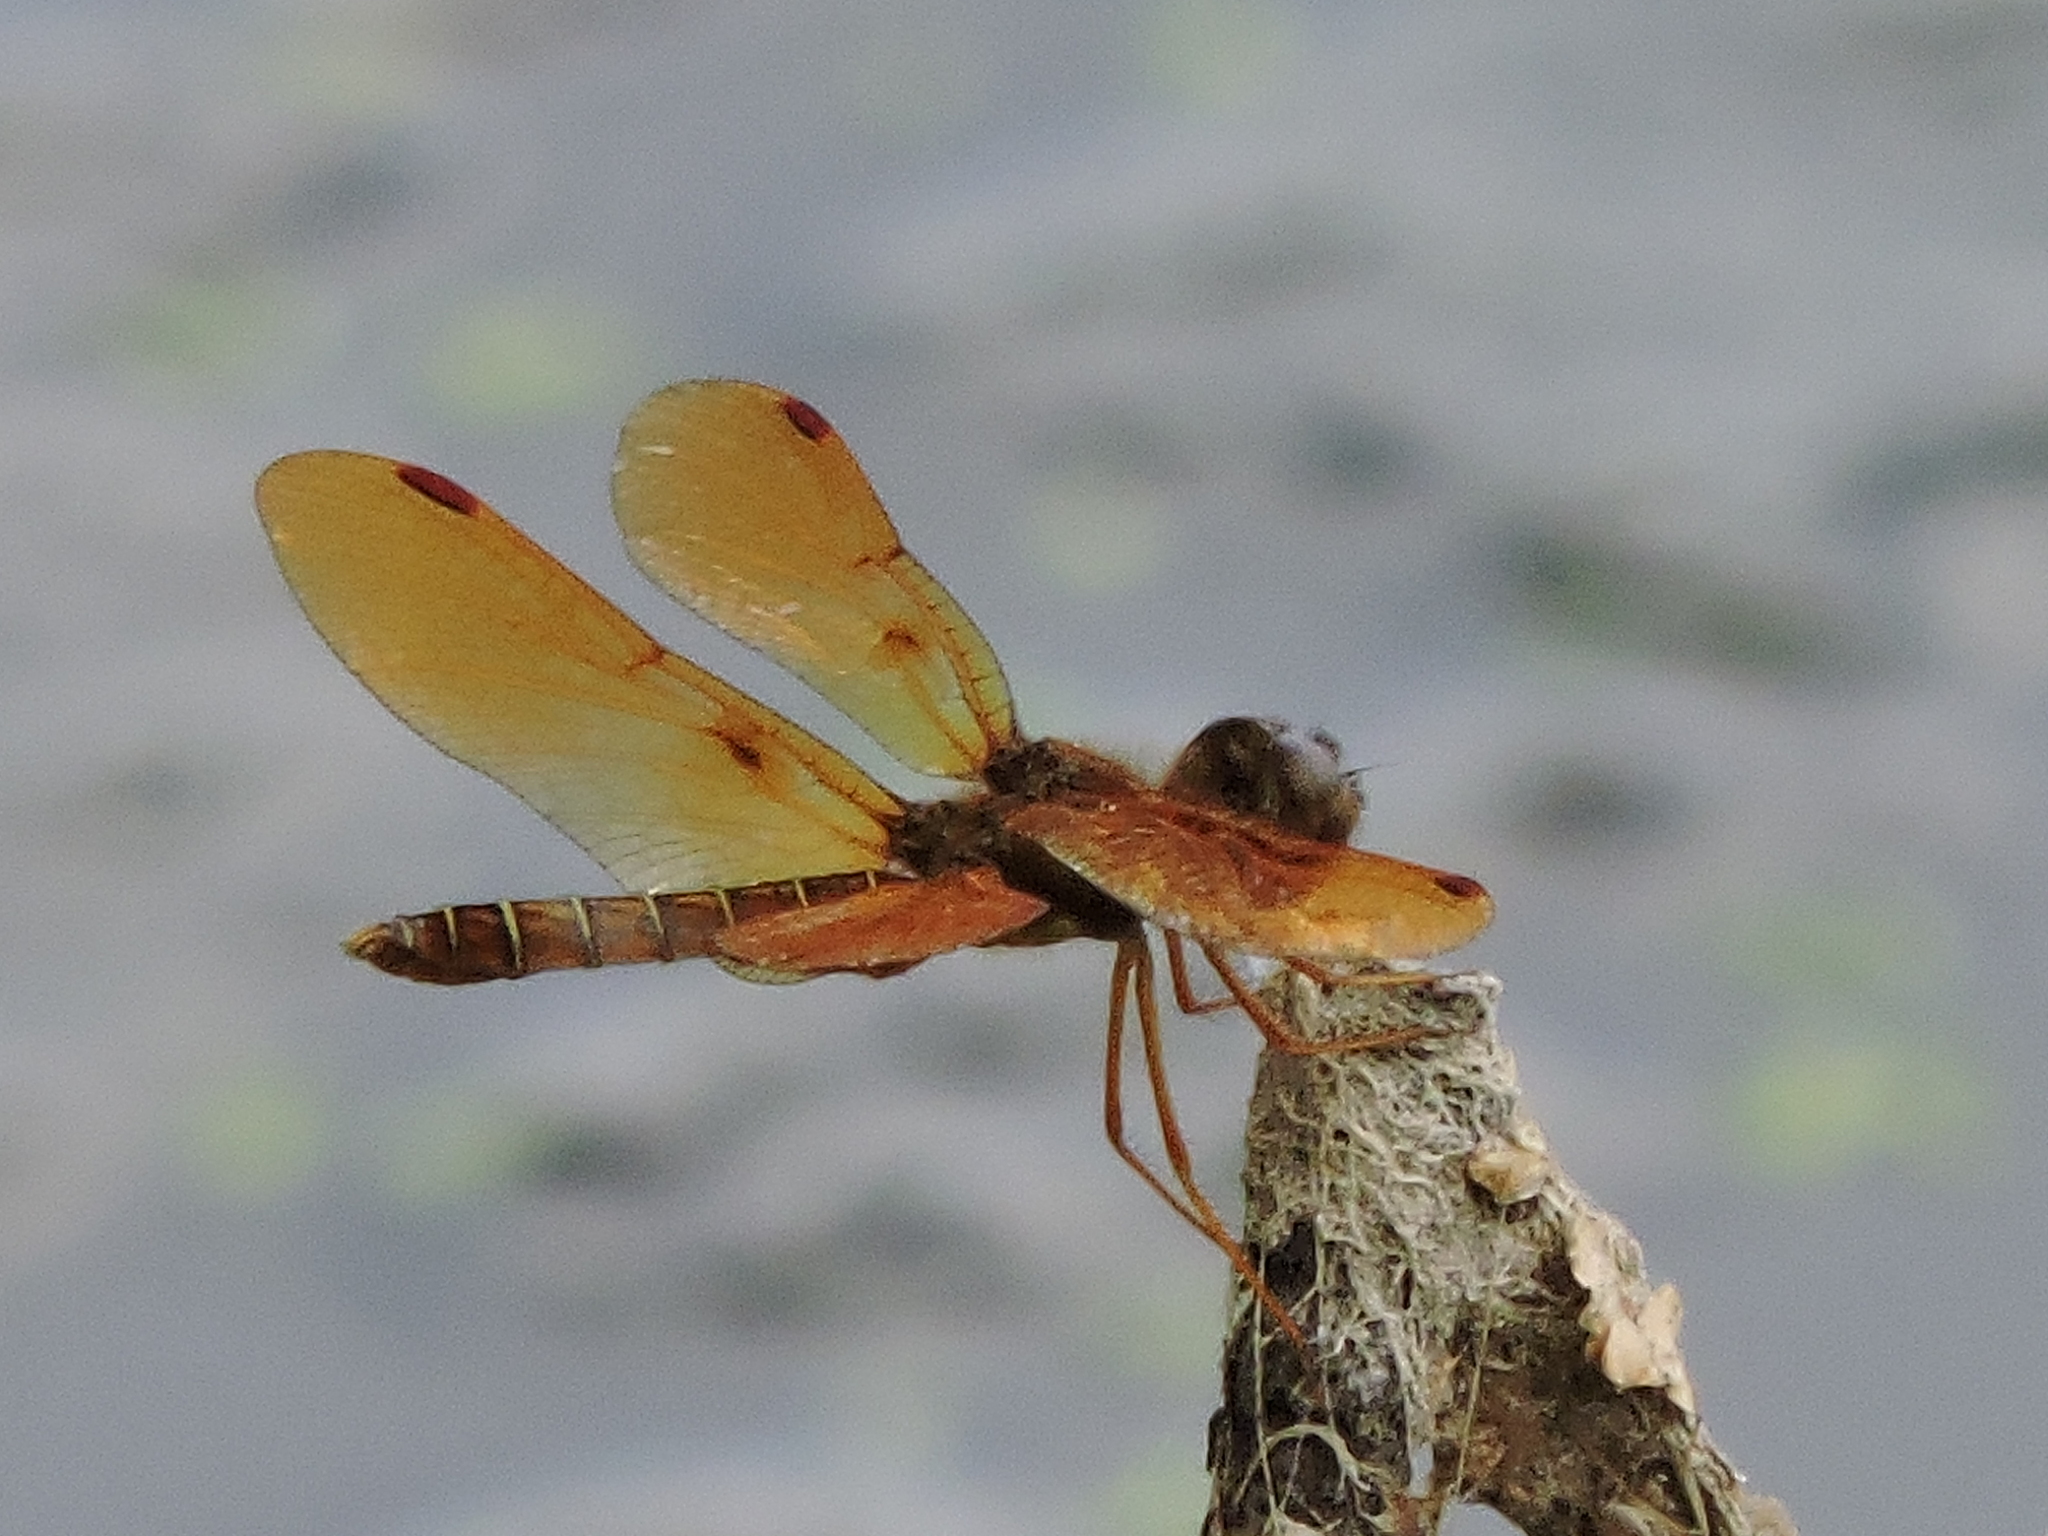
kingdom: Animalia
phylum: Arthropoda
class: Insecta
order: Odonata
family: Libellulidae
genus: Perithemis
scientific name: Perithemis tenera
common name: Eastern amberwing
